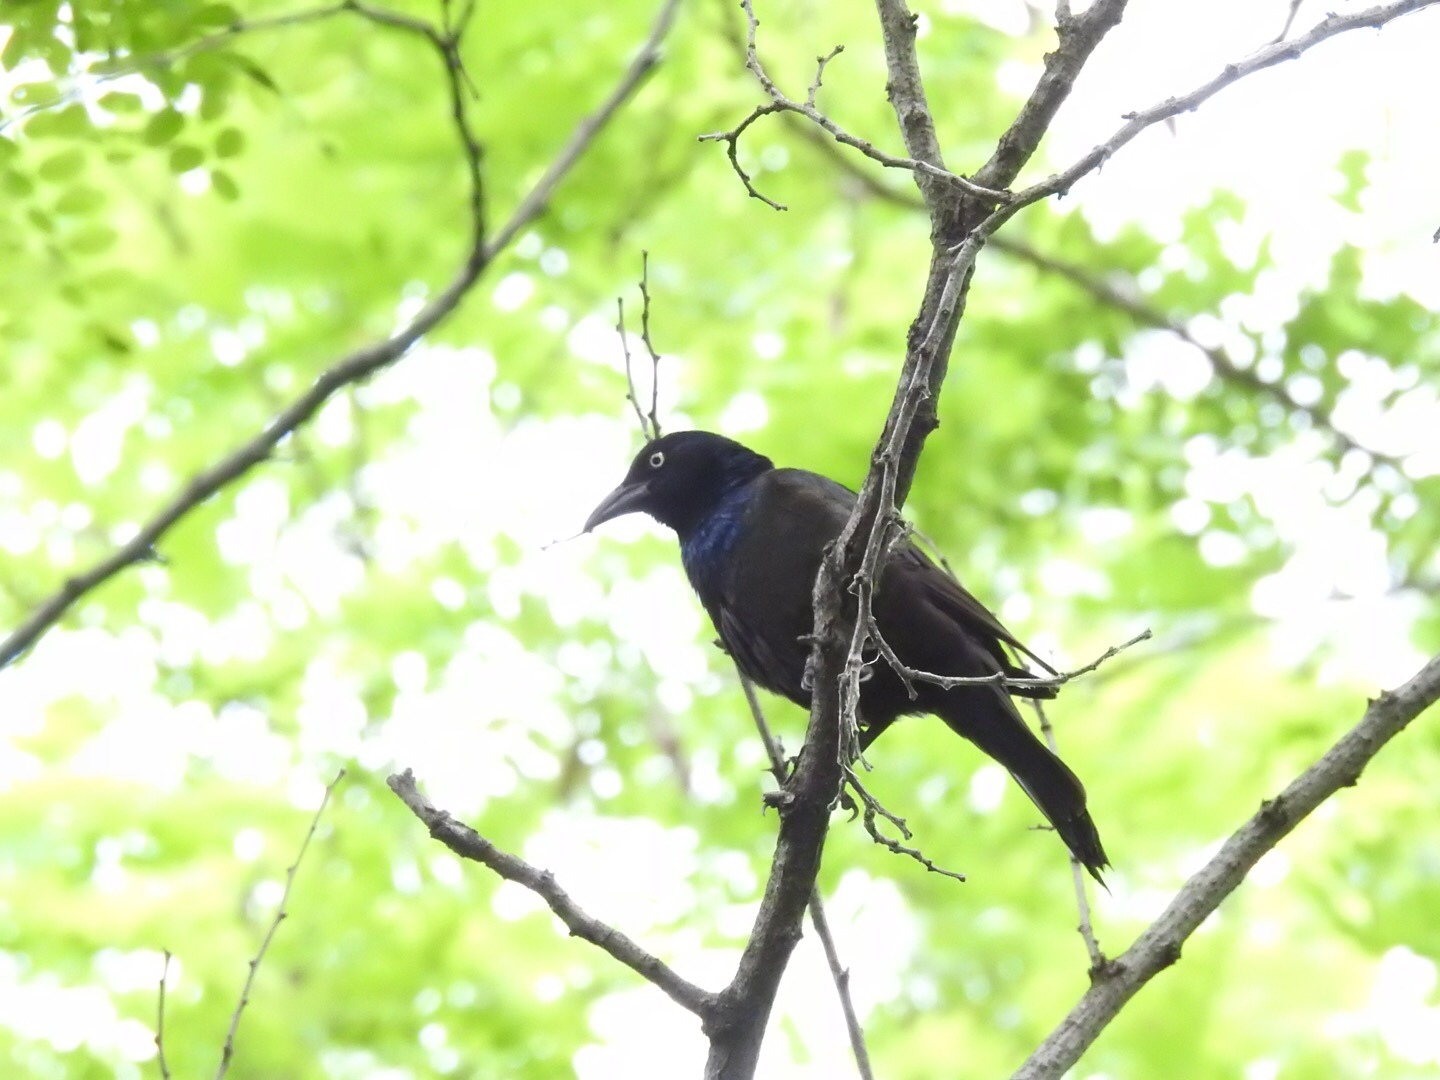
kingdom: Animalia
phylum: Chordata
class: Aves
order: Passeriformes
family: Icteridae
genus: Quiscalus
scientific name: Quiscalus quiscula
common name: Common grackle
